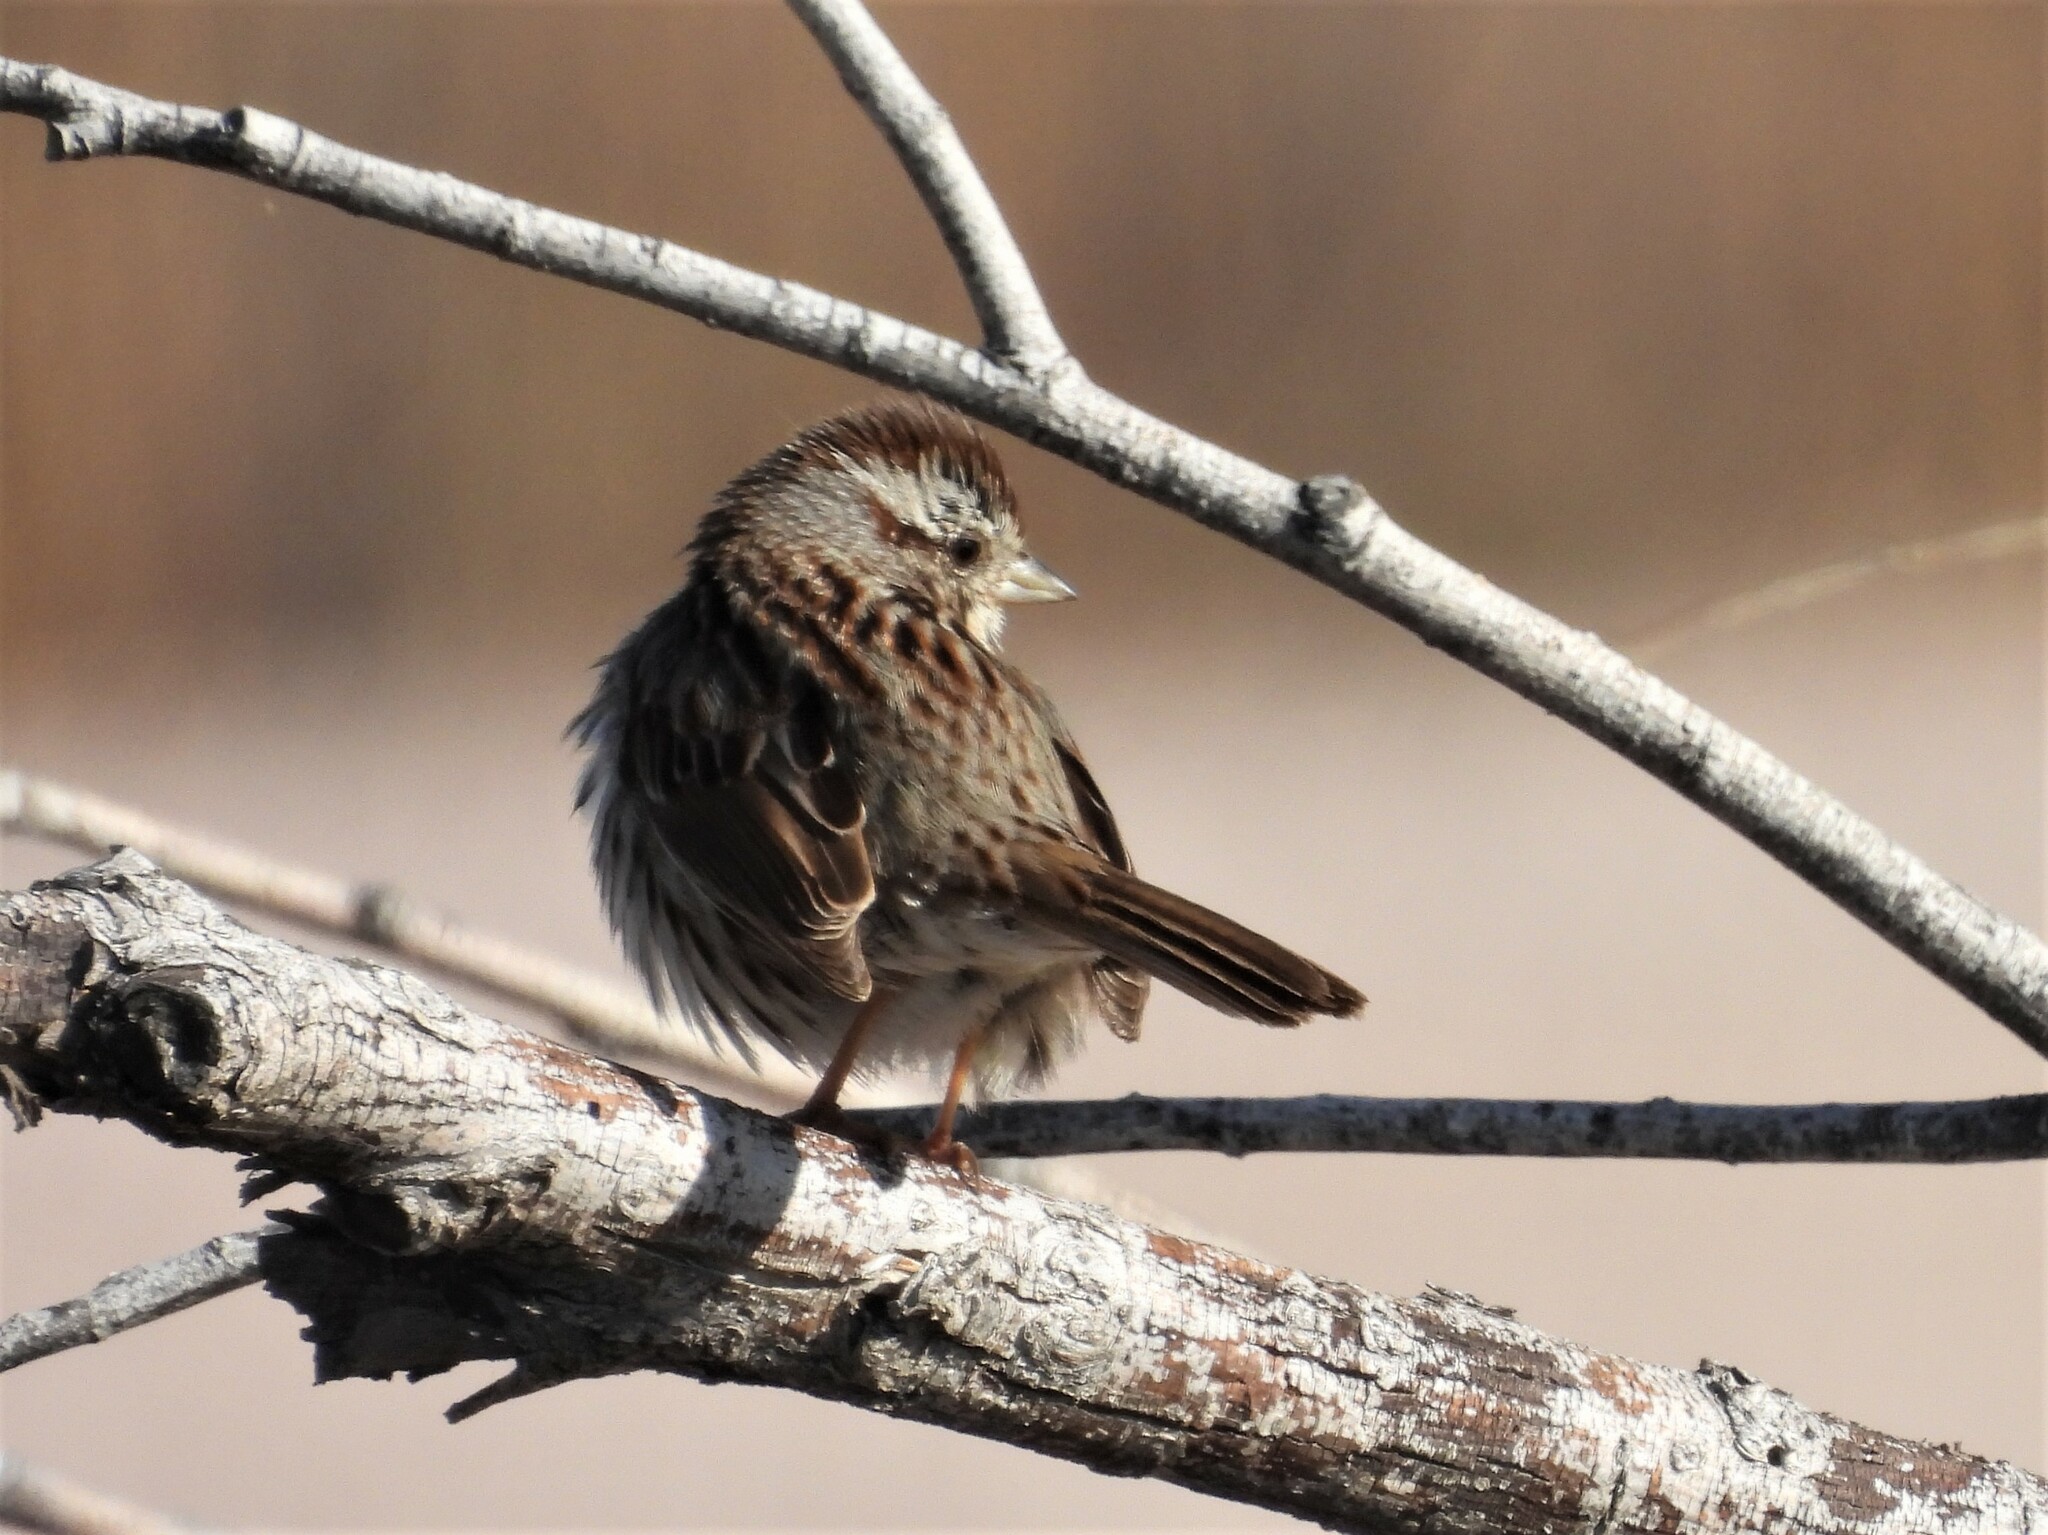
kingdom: Animalia
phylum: Chordata
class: Aves
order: Passeriformes
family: Passerellidae
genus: Melospiza
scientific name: Melospiza melodia
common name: Song sparrow
